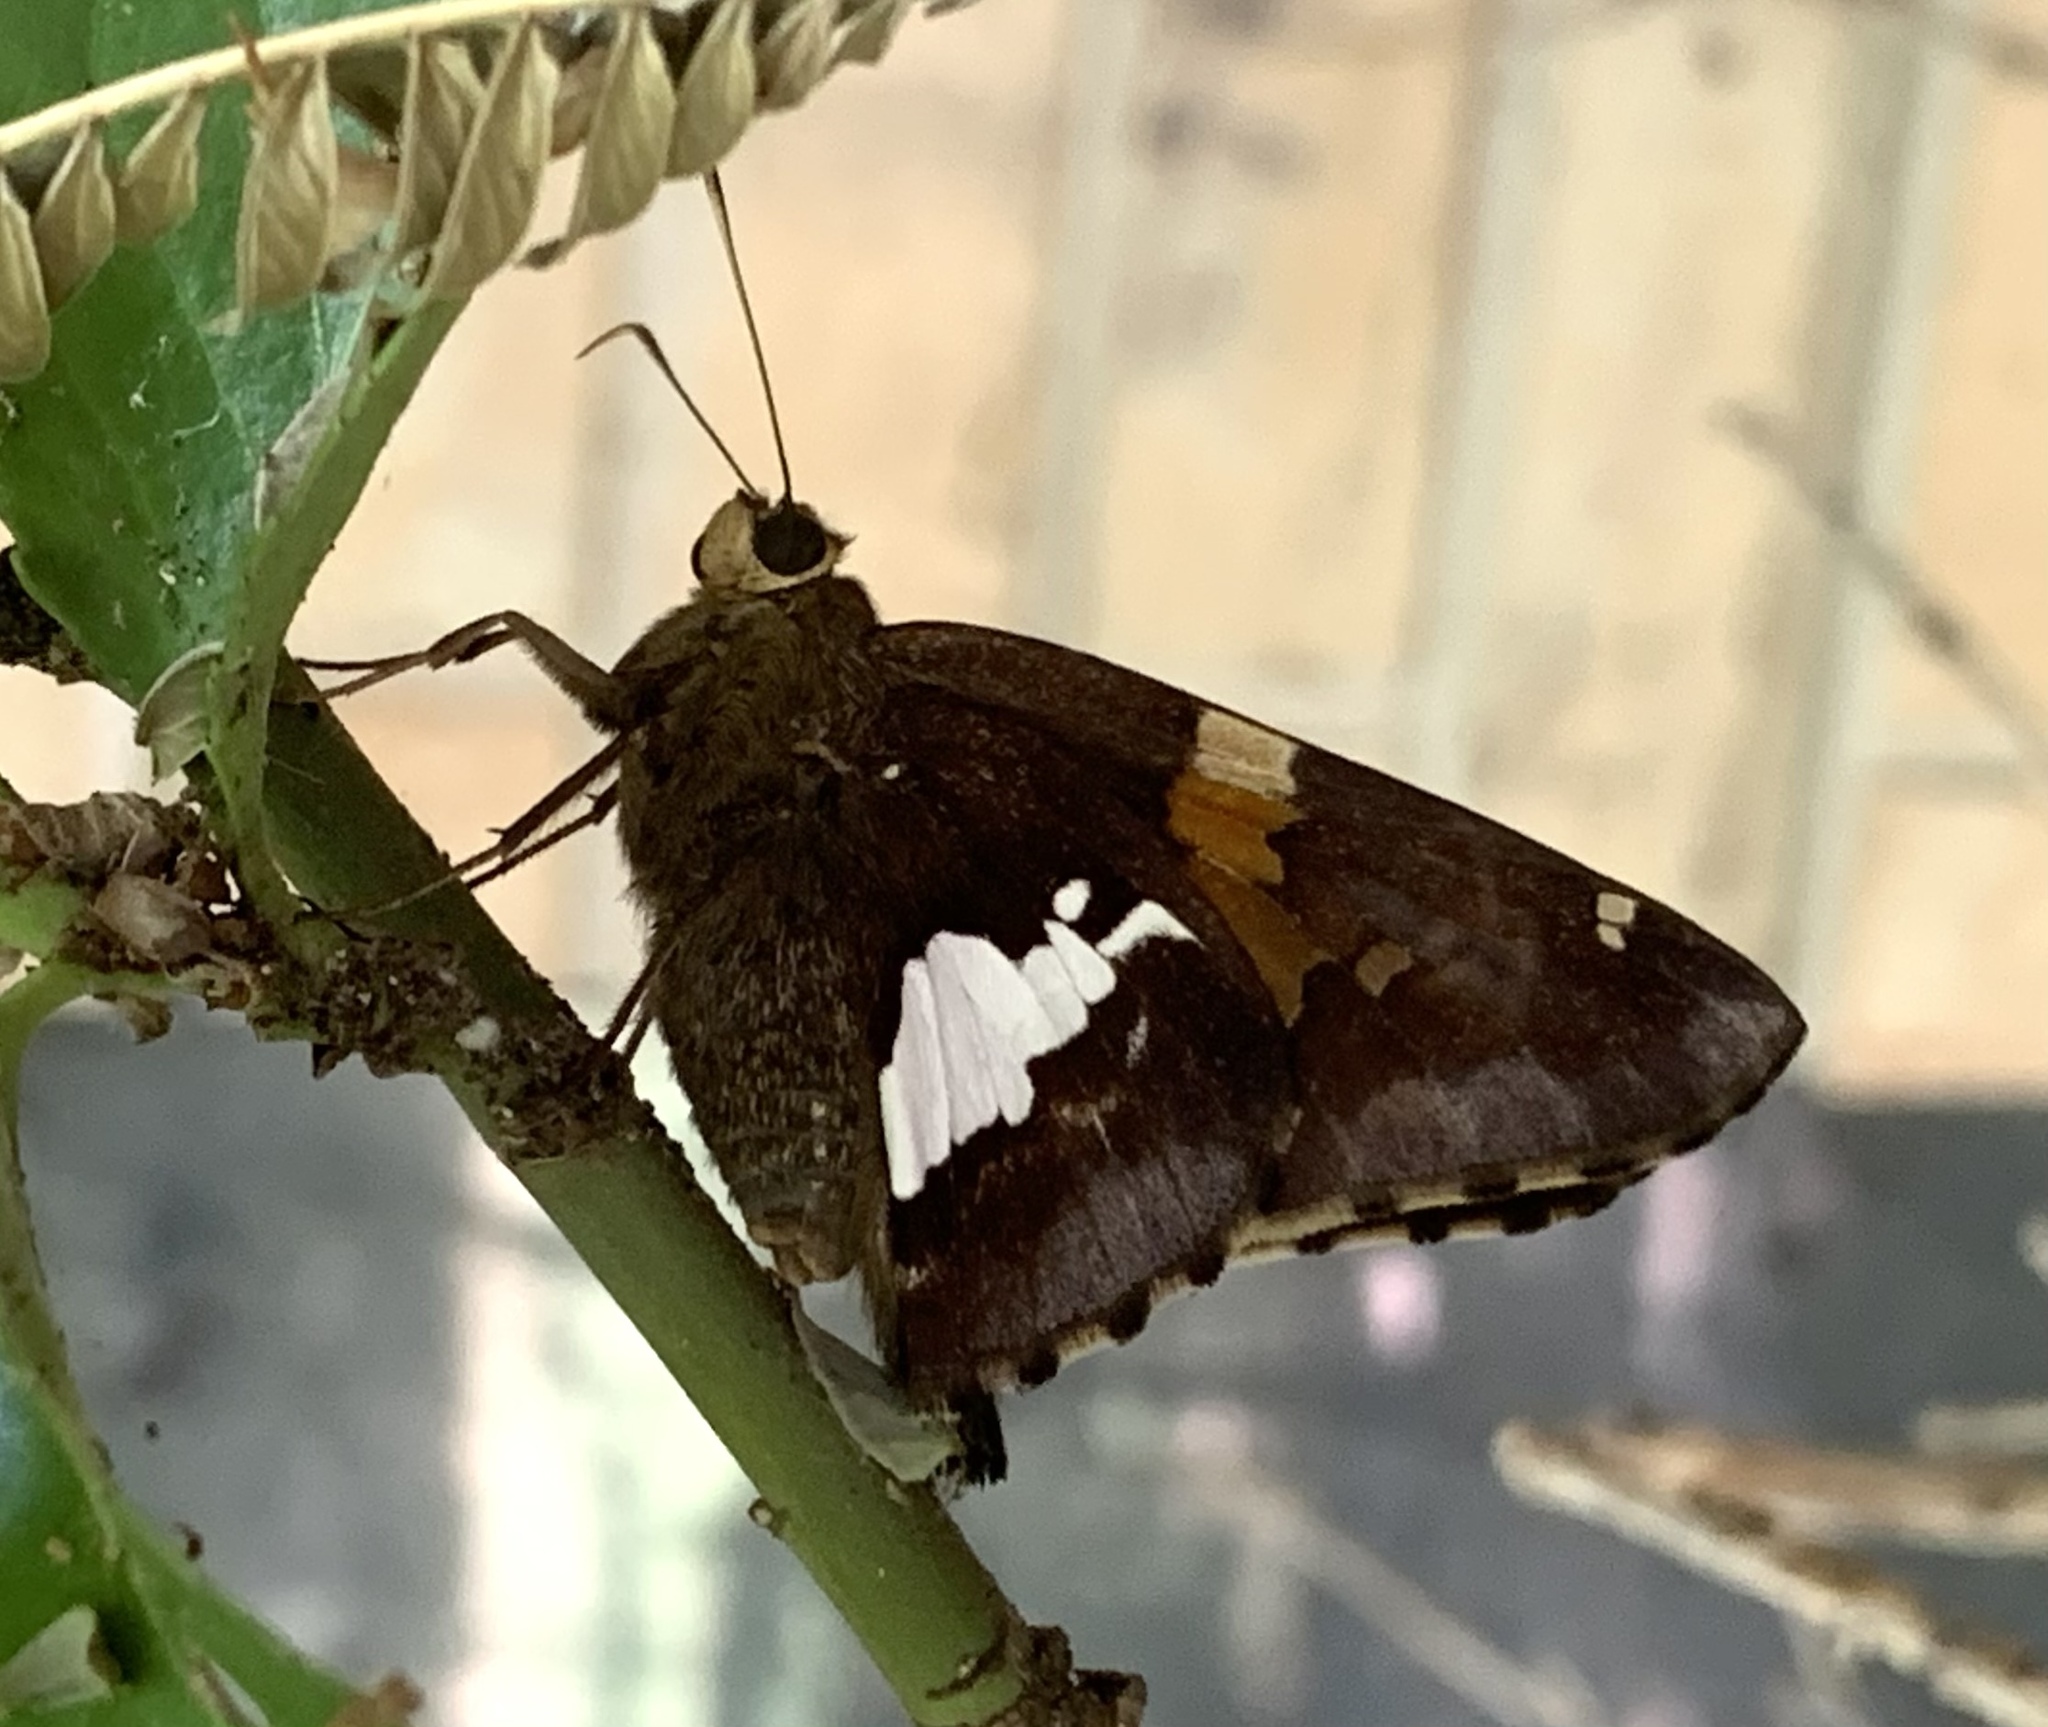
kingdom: Animalia
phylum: Arthropoda
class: Insecta
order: Lepidoptera
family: Hesperiidae
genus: Epargyreus
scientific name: Epargyreus clarus
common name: Silver-spotted skipper
